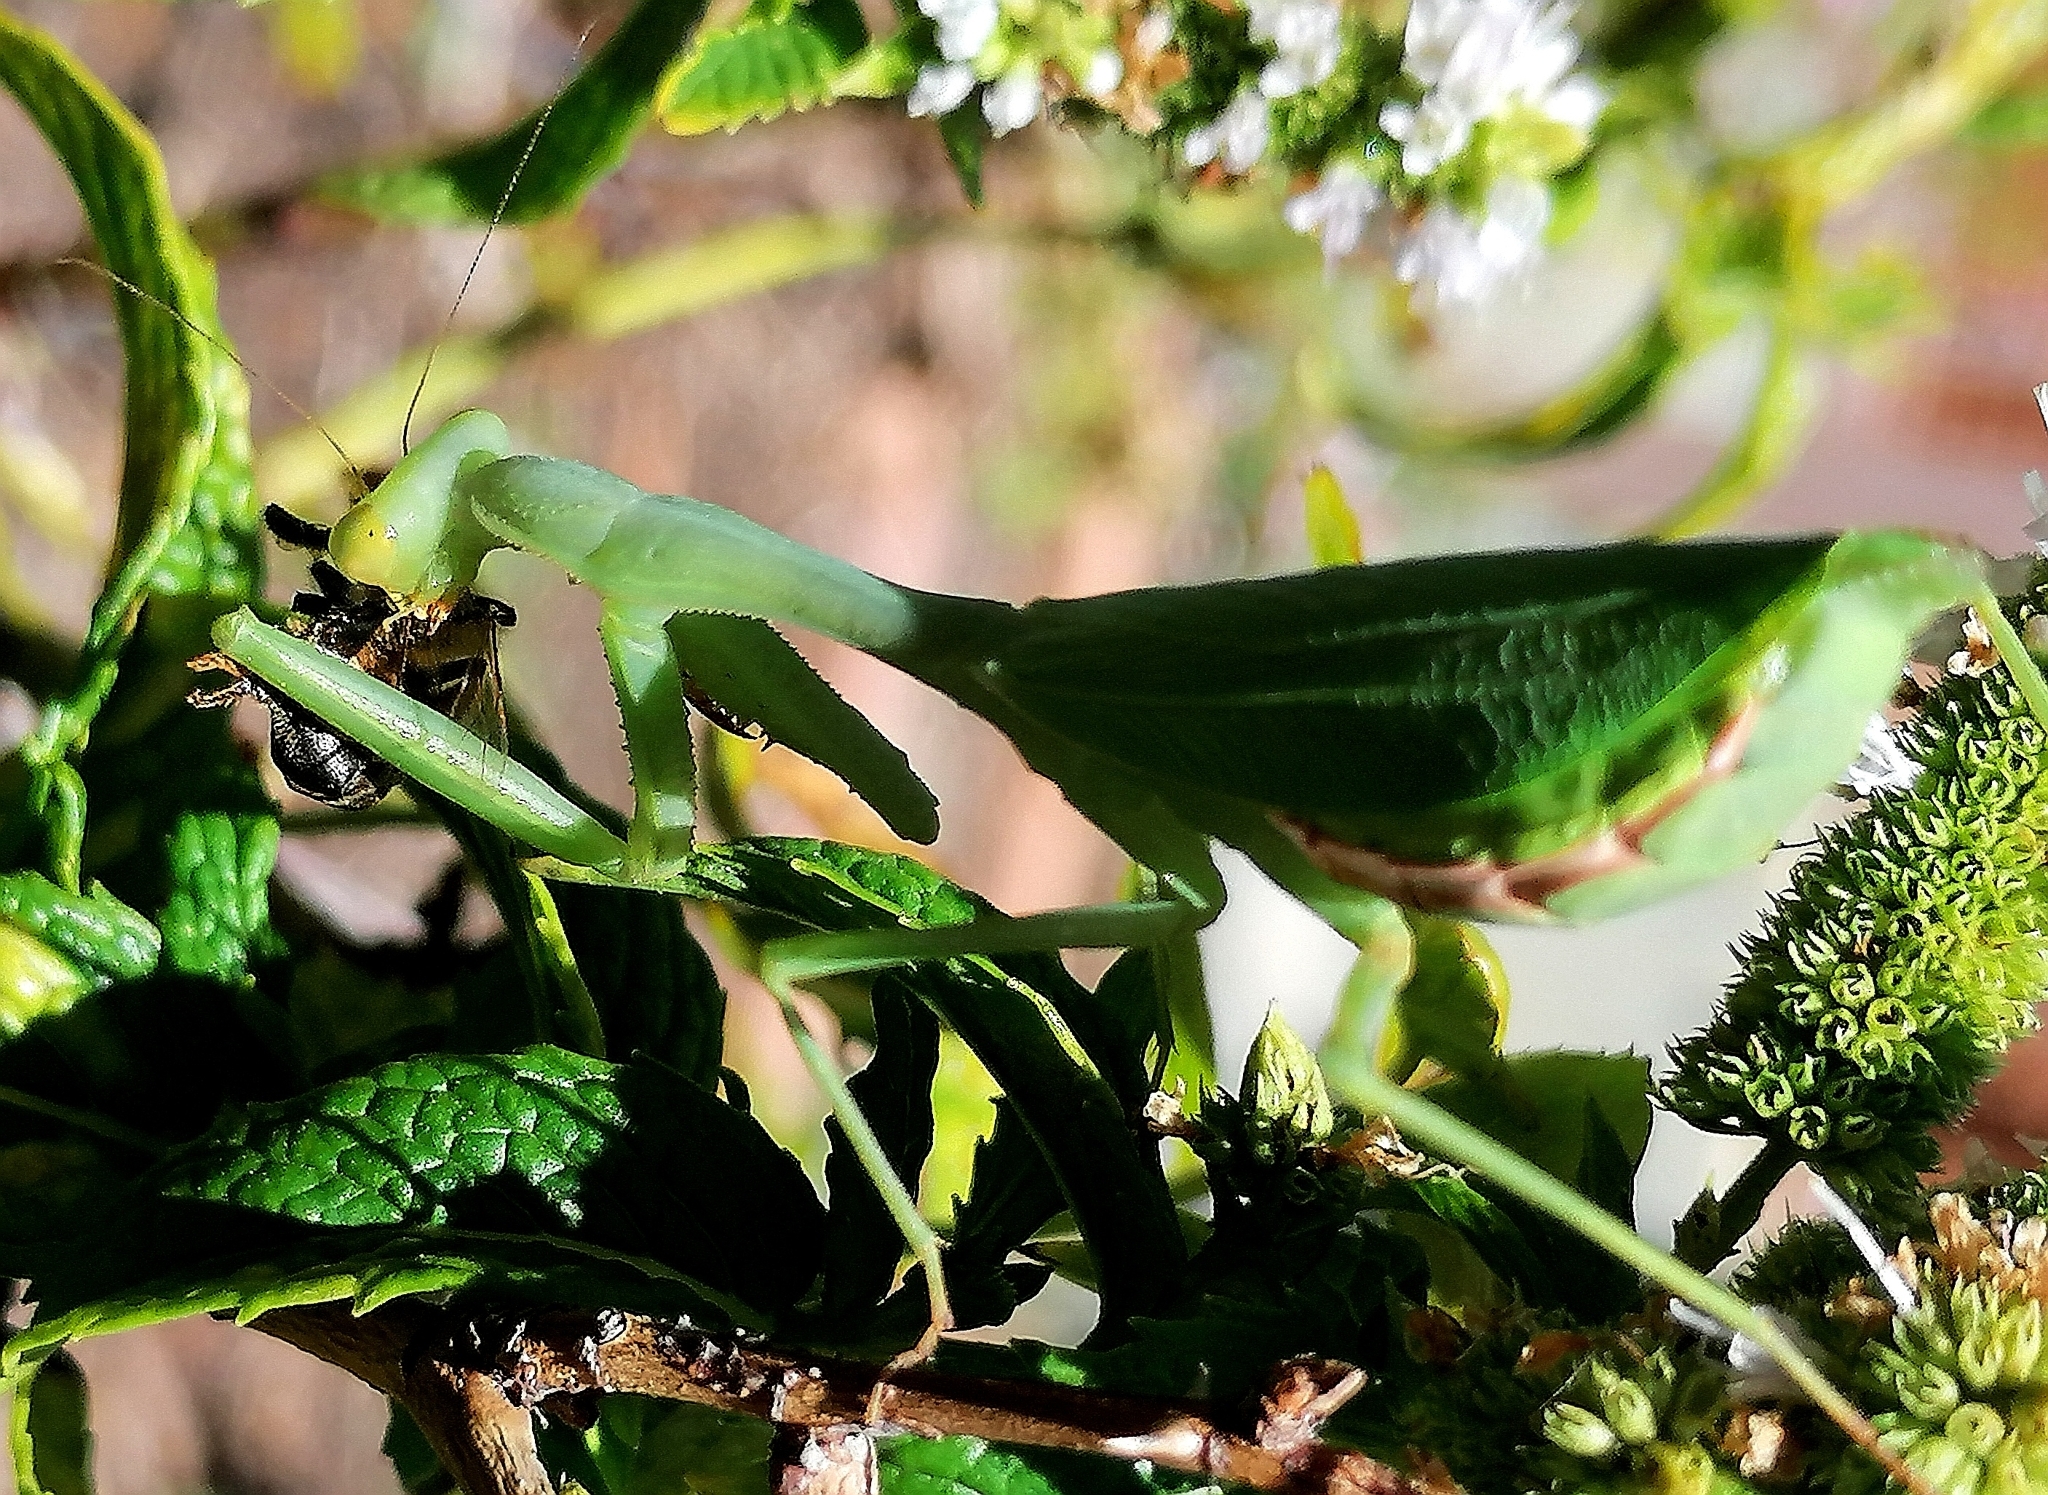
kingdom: Animalia
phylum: Arthropoda
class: Insecta
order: Mantodea
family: Miomantidae
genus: Miomantis
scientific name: Miomantis caffra
